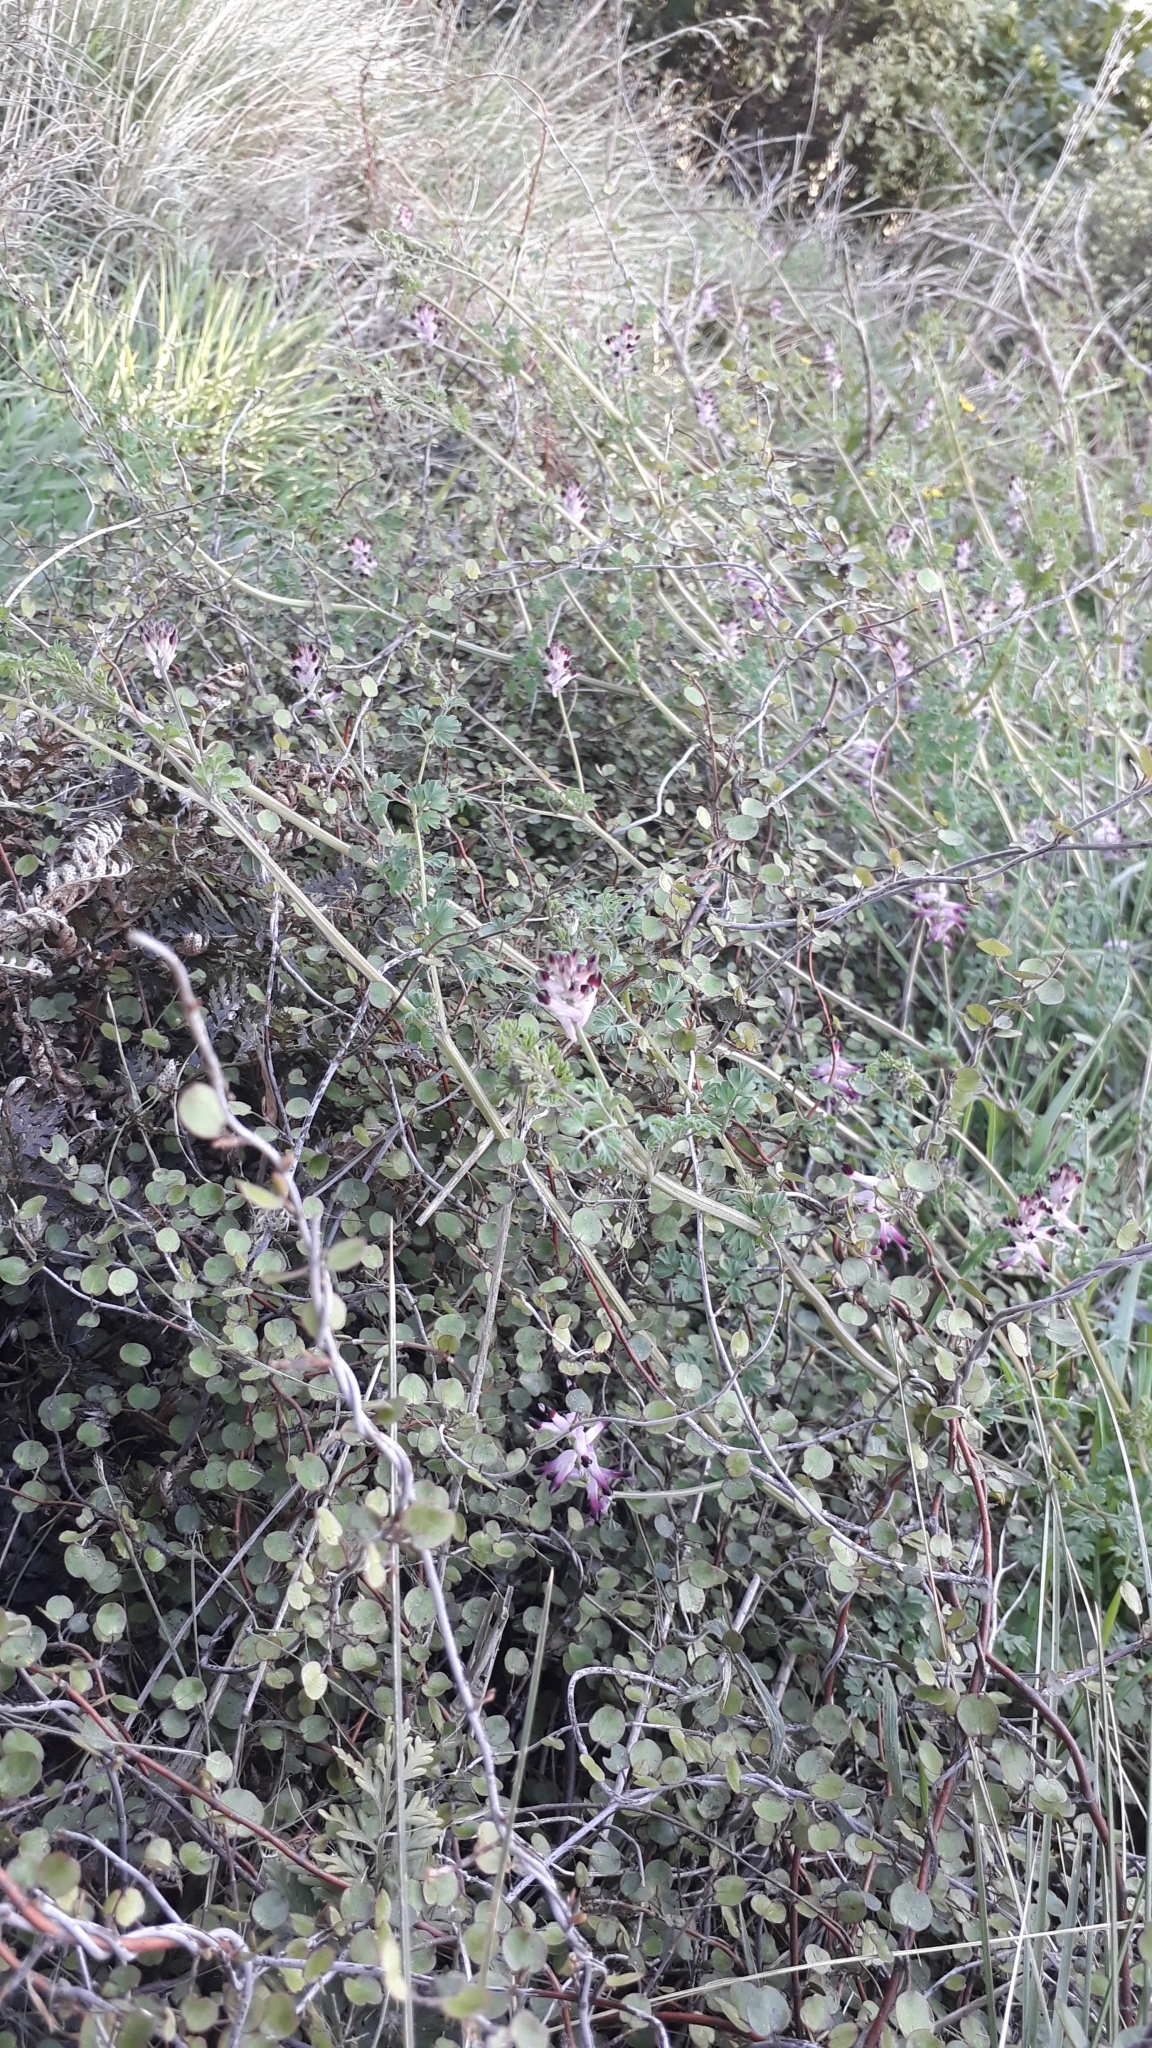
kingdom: Plantae
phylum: Tracheophyta
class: Magnoliopsida
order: Caryophyllales
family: Polygonaceae
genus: Muehlenbeckia
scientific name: Muehlenbeckia complexa
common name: Wireplant
